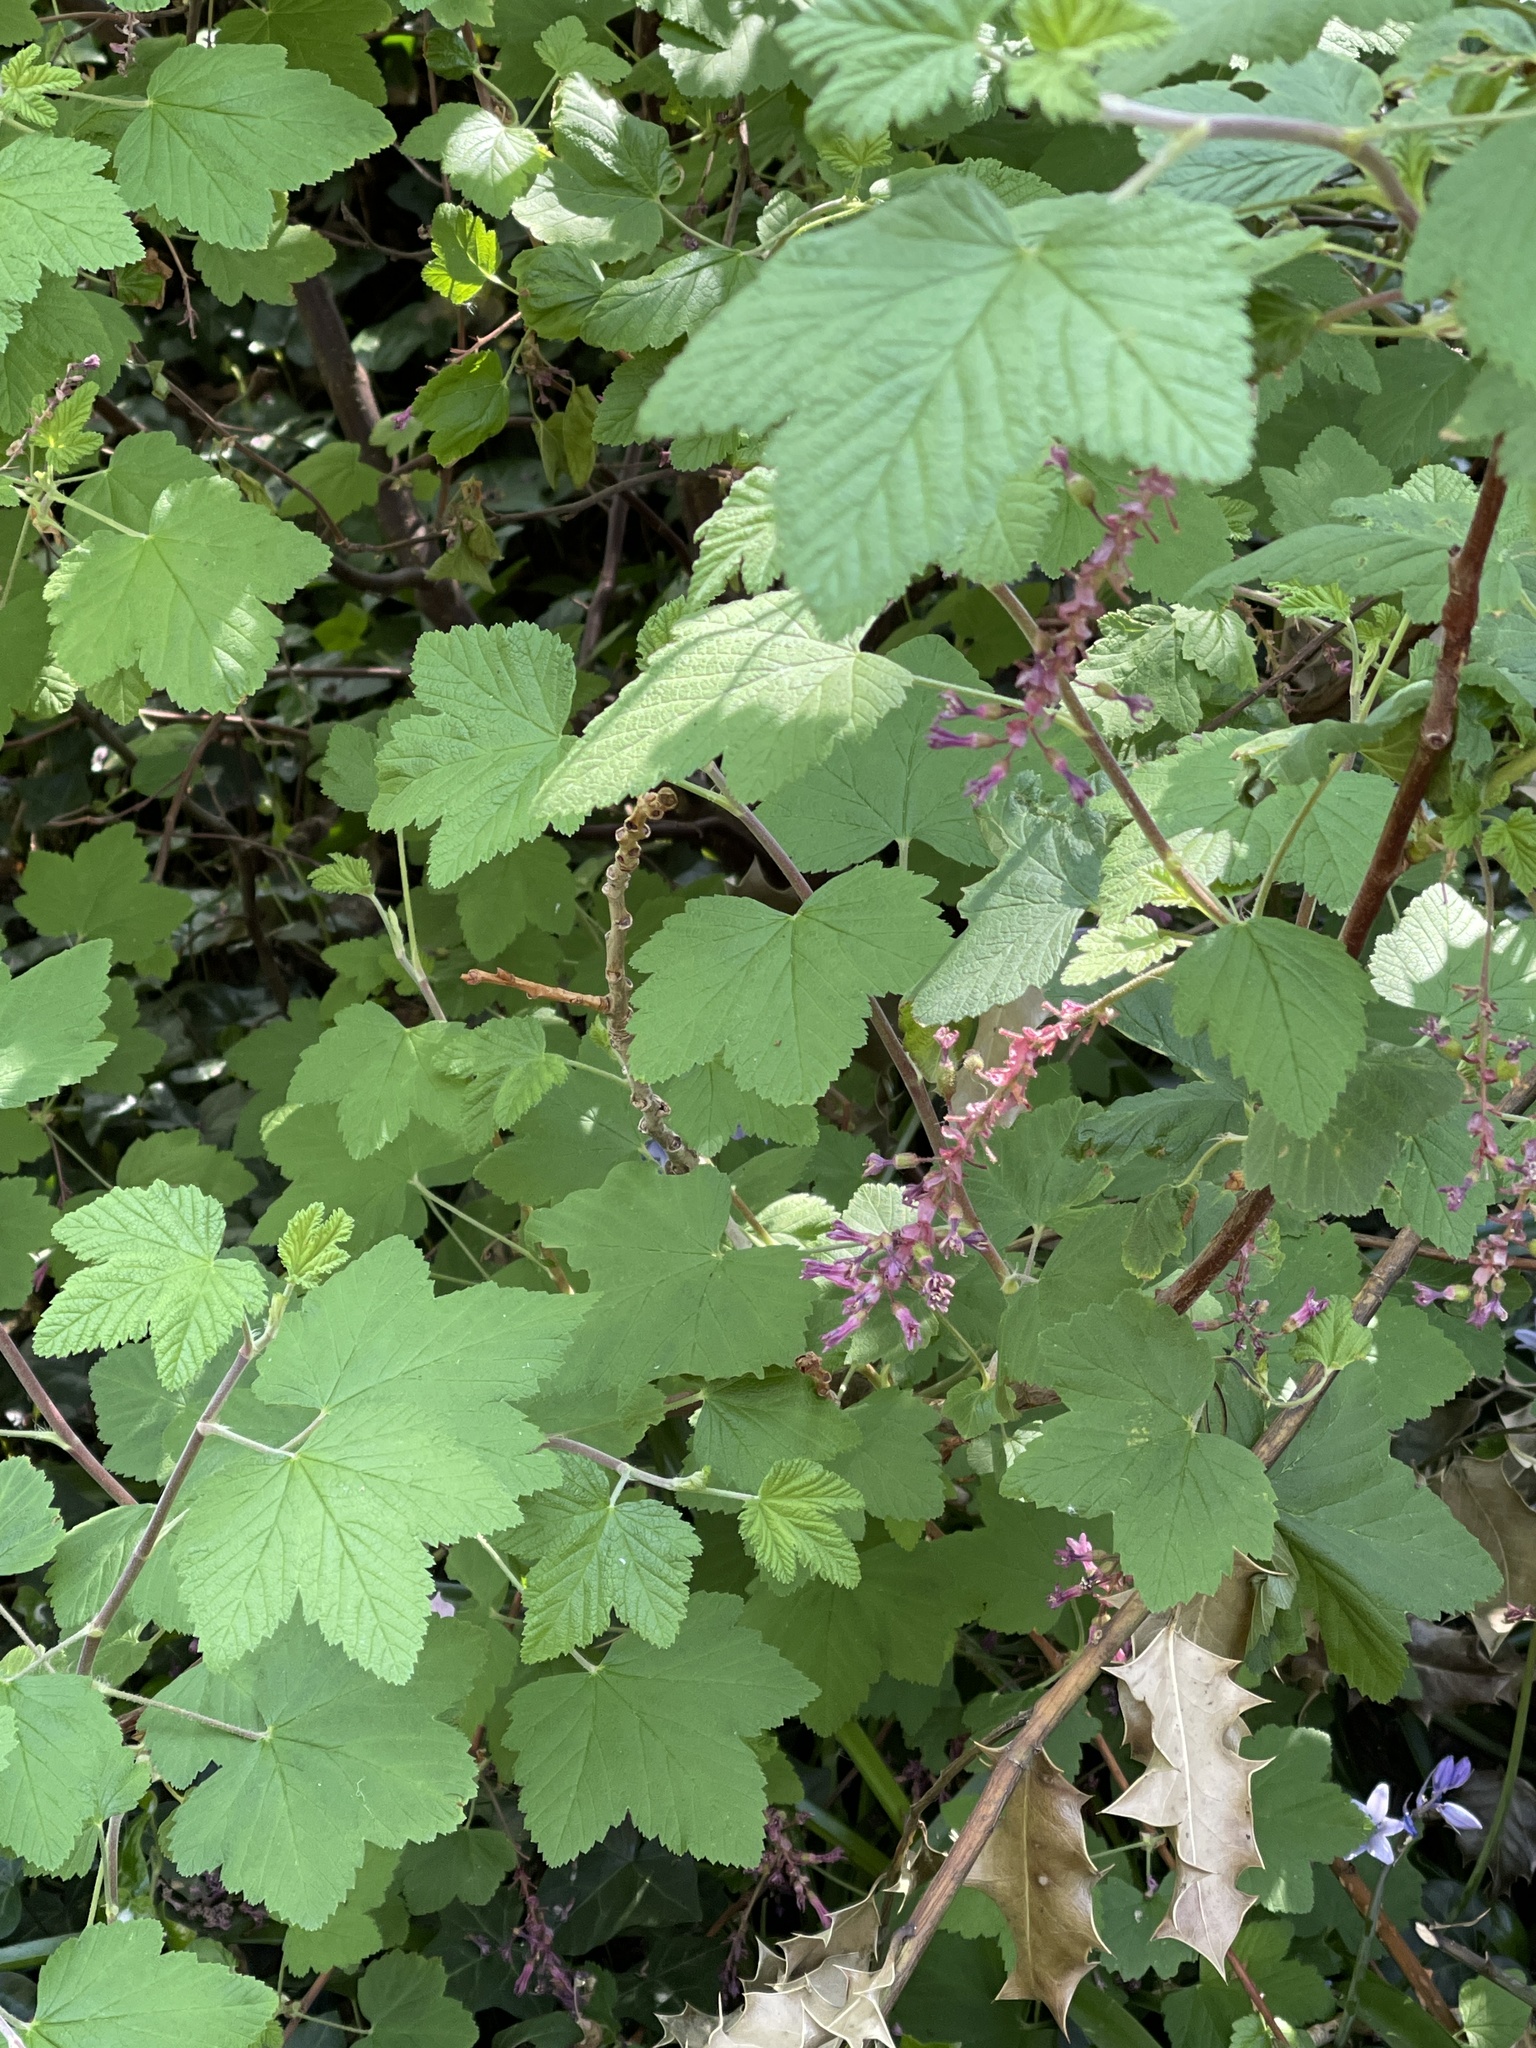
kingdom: Plantae
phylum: Tracheophyta
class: Magnoliopsida
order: Saxifragales
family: Grossulariaceae
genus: Ribes
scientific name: Ribes sanguineum
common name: Flowering currant
